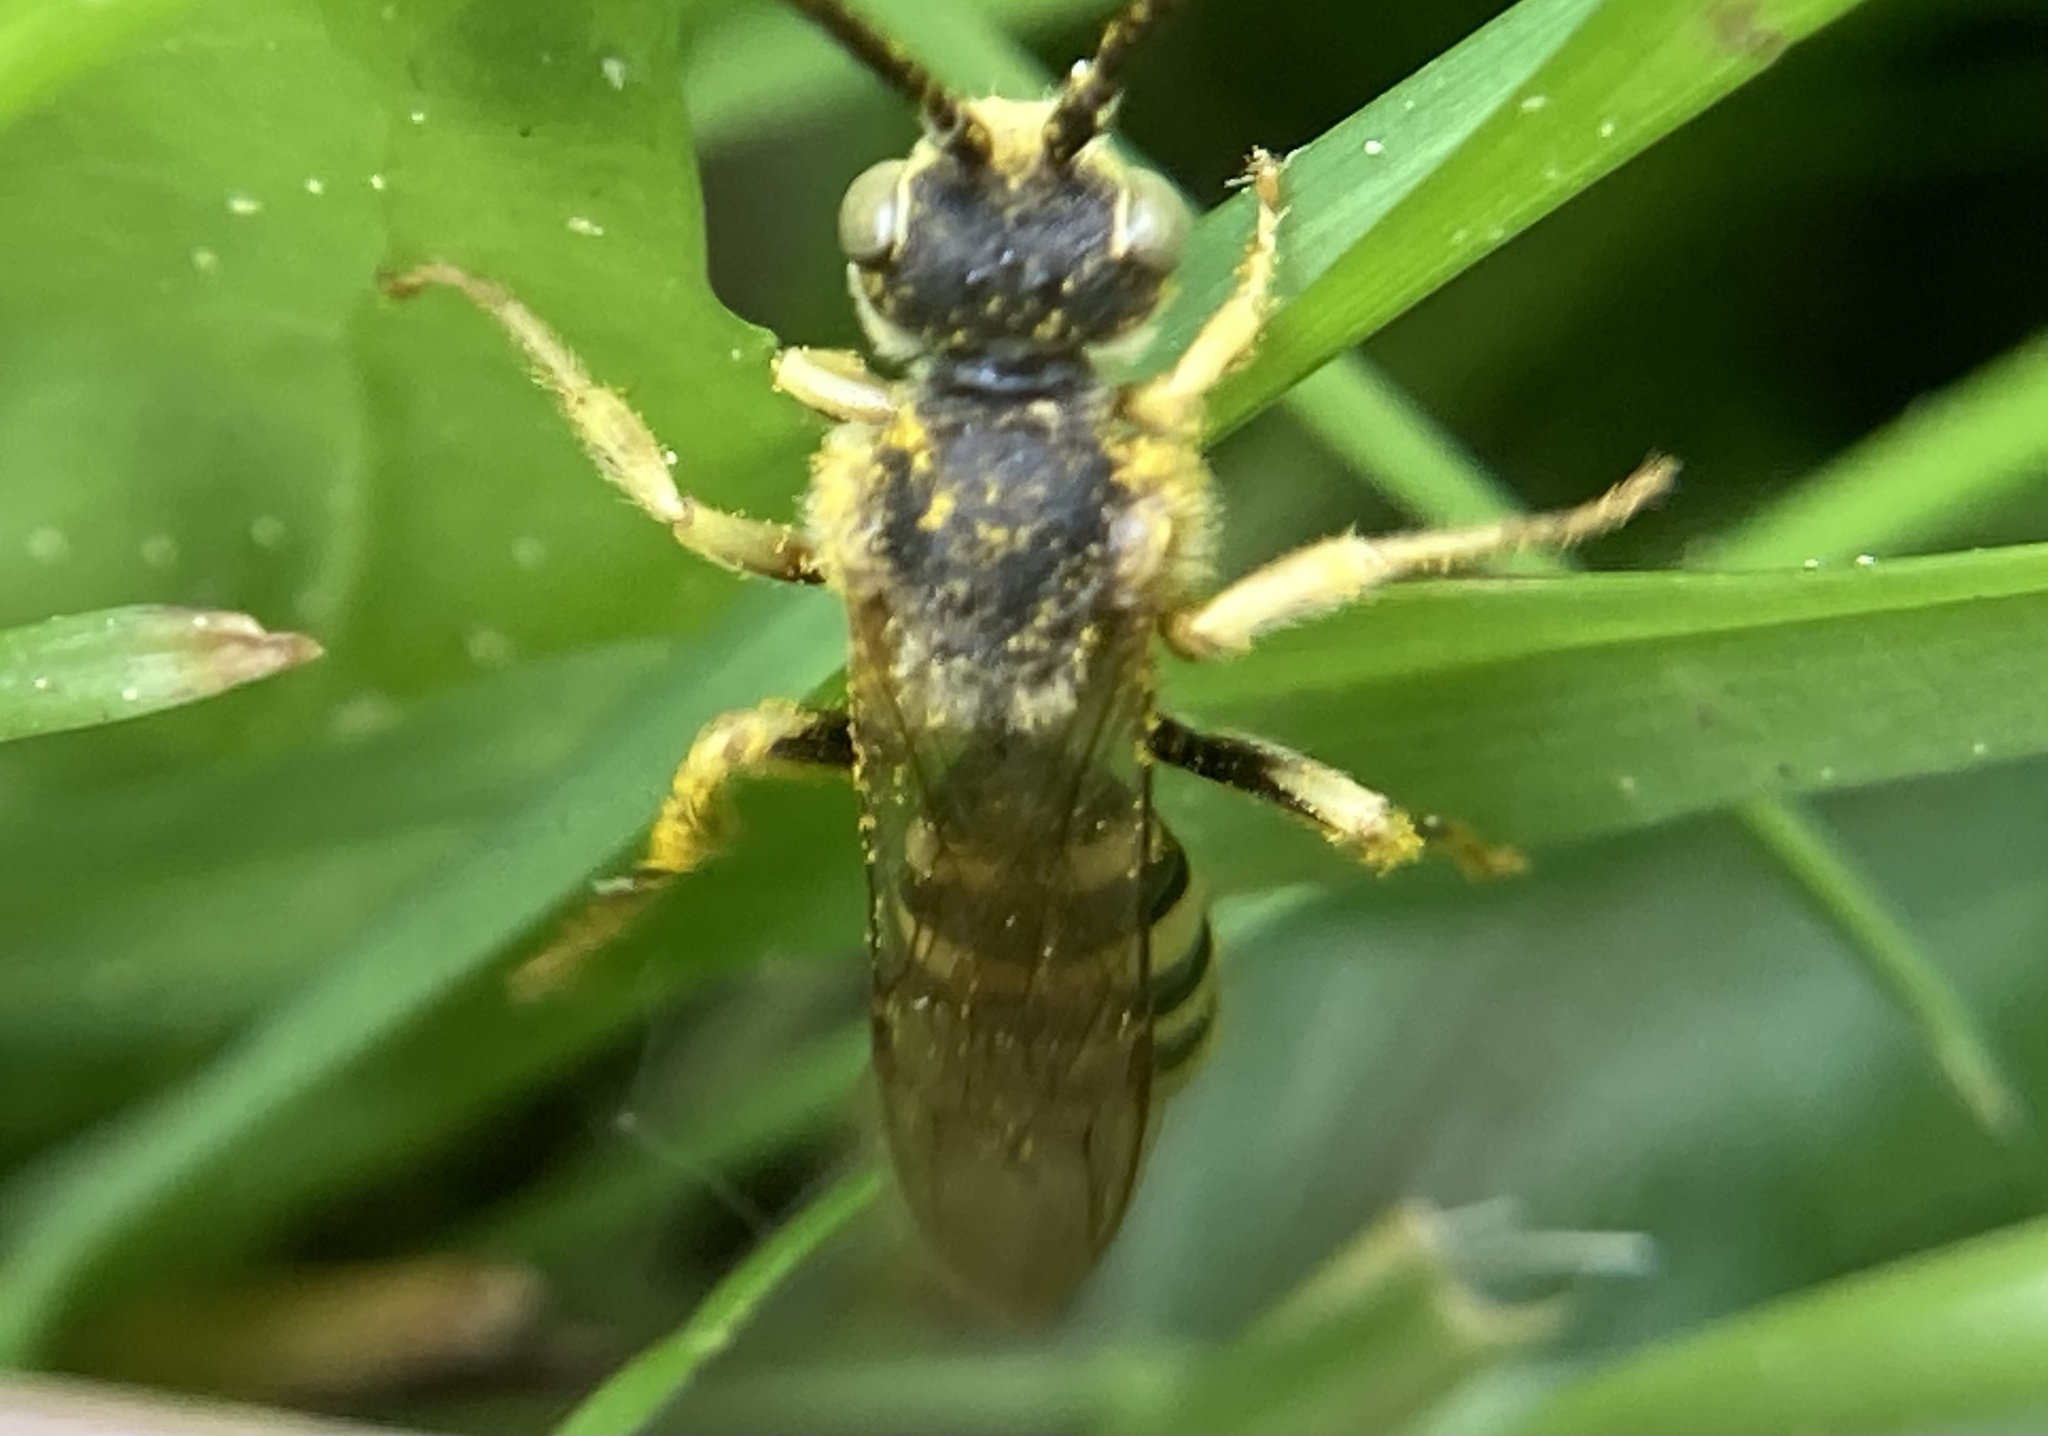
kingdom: Animalia
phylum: Arthropoda
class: Insecta
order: Hymenoptera
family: Apidae
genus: Nomada
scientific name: Nomada luteoloides
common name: Black-and-yellow nomad bee
